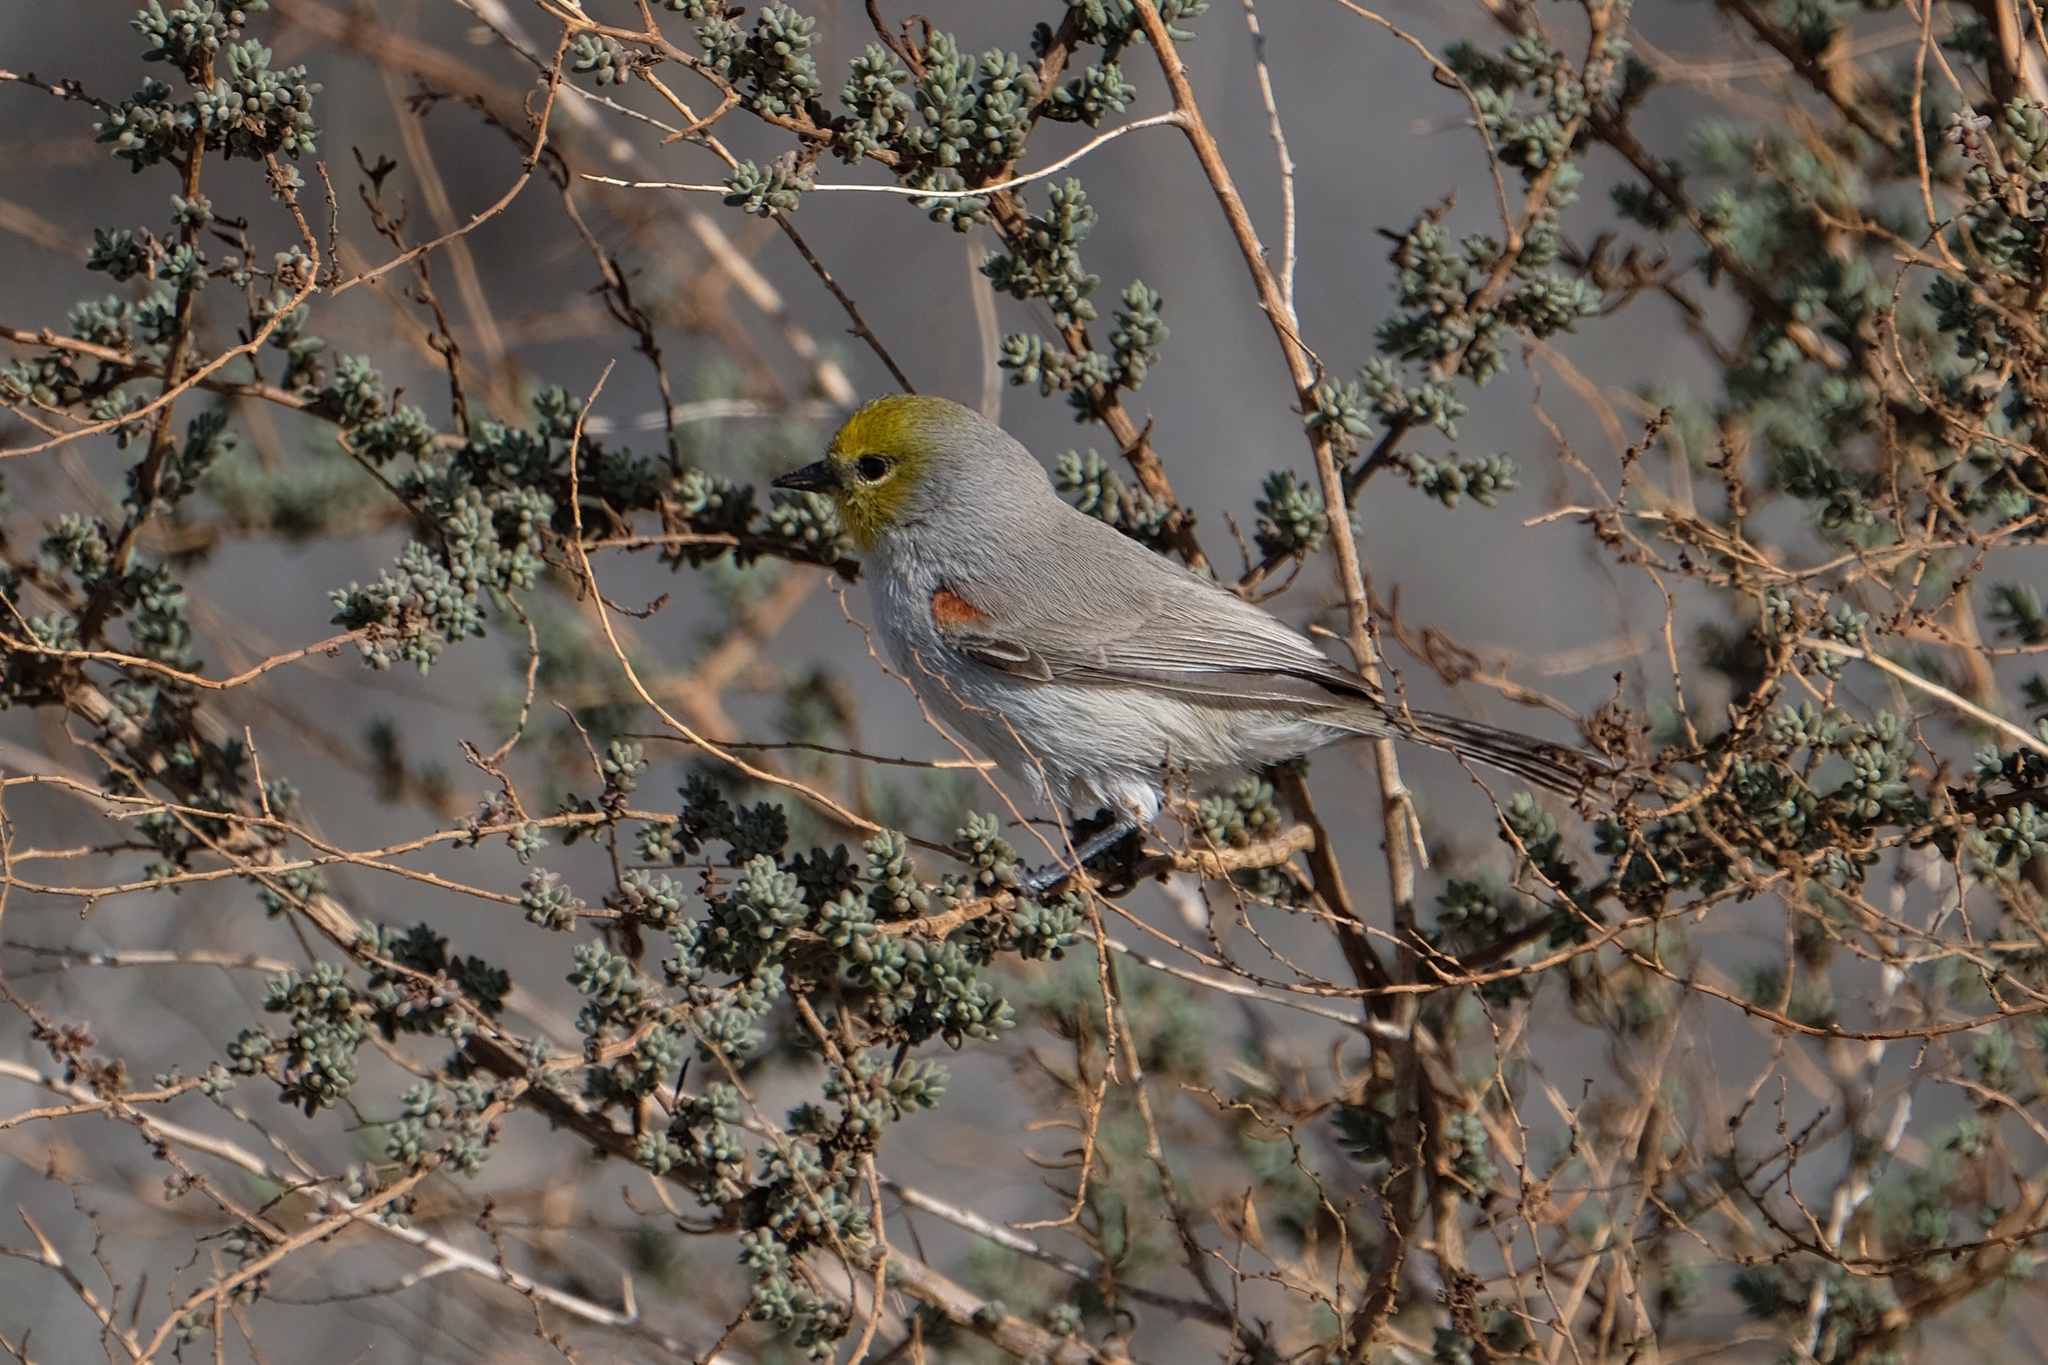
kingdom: Animalia
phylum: Chordata
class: Aves
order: Passeriformes
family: Remizidae
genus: Auriparus
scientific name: Auriparus flaviceps
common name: Verdin
